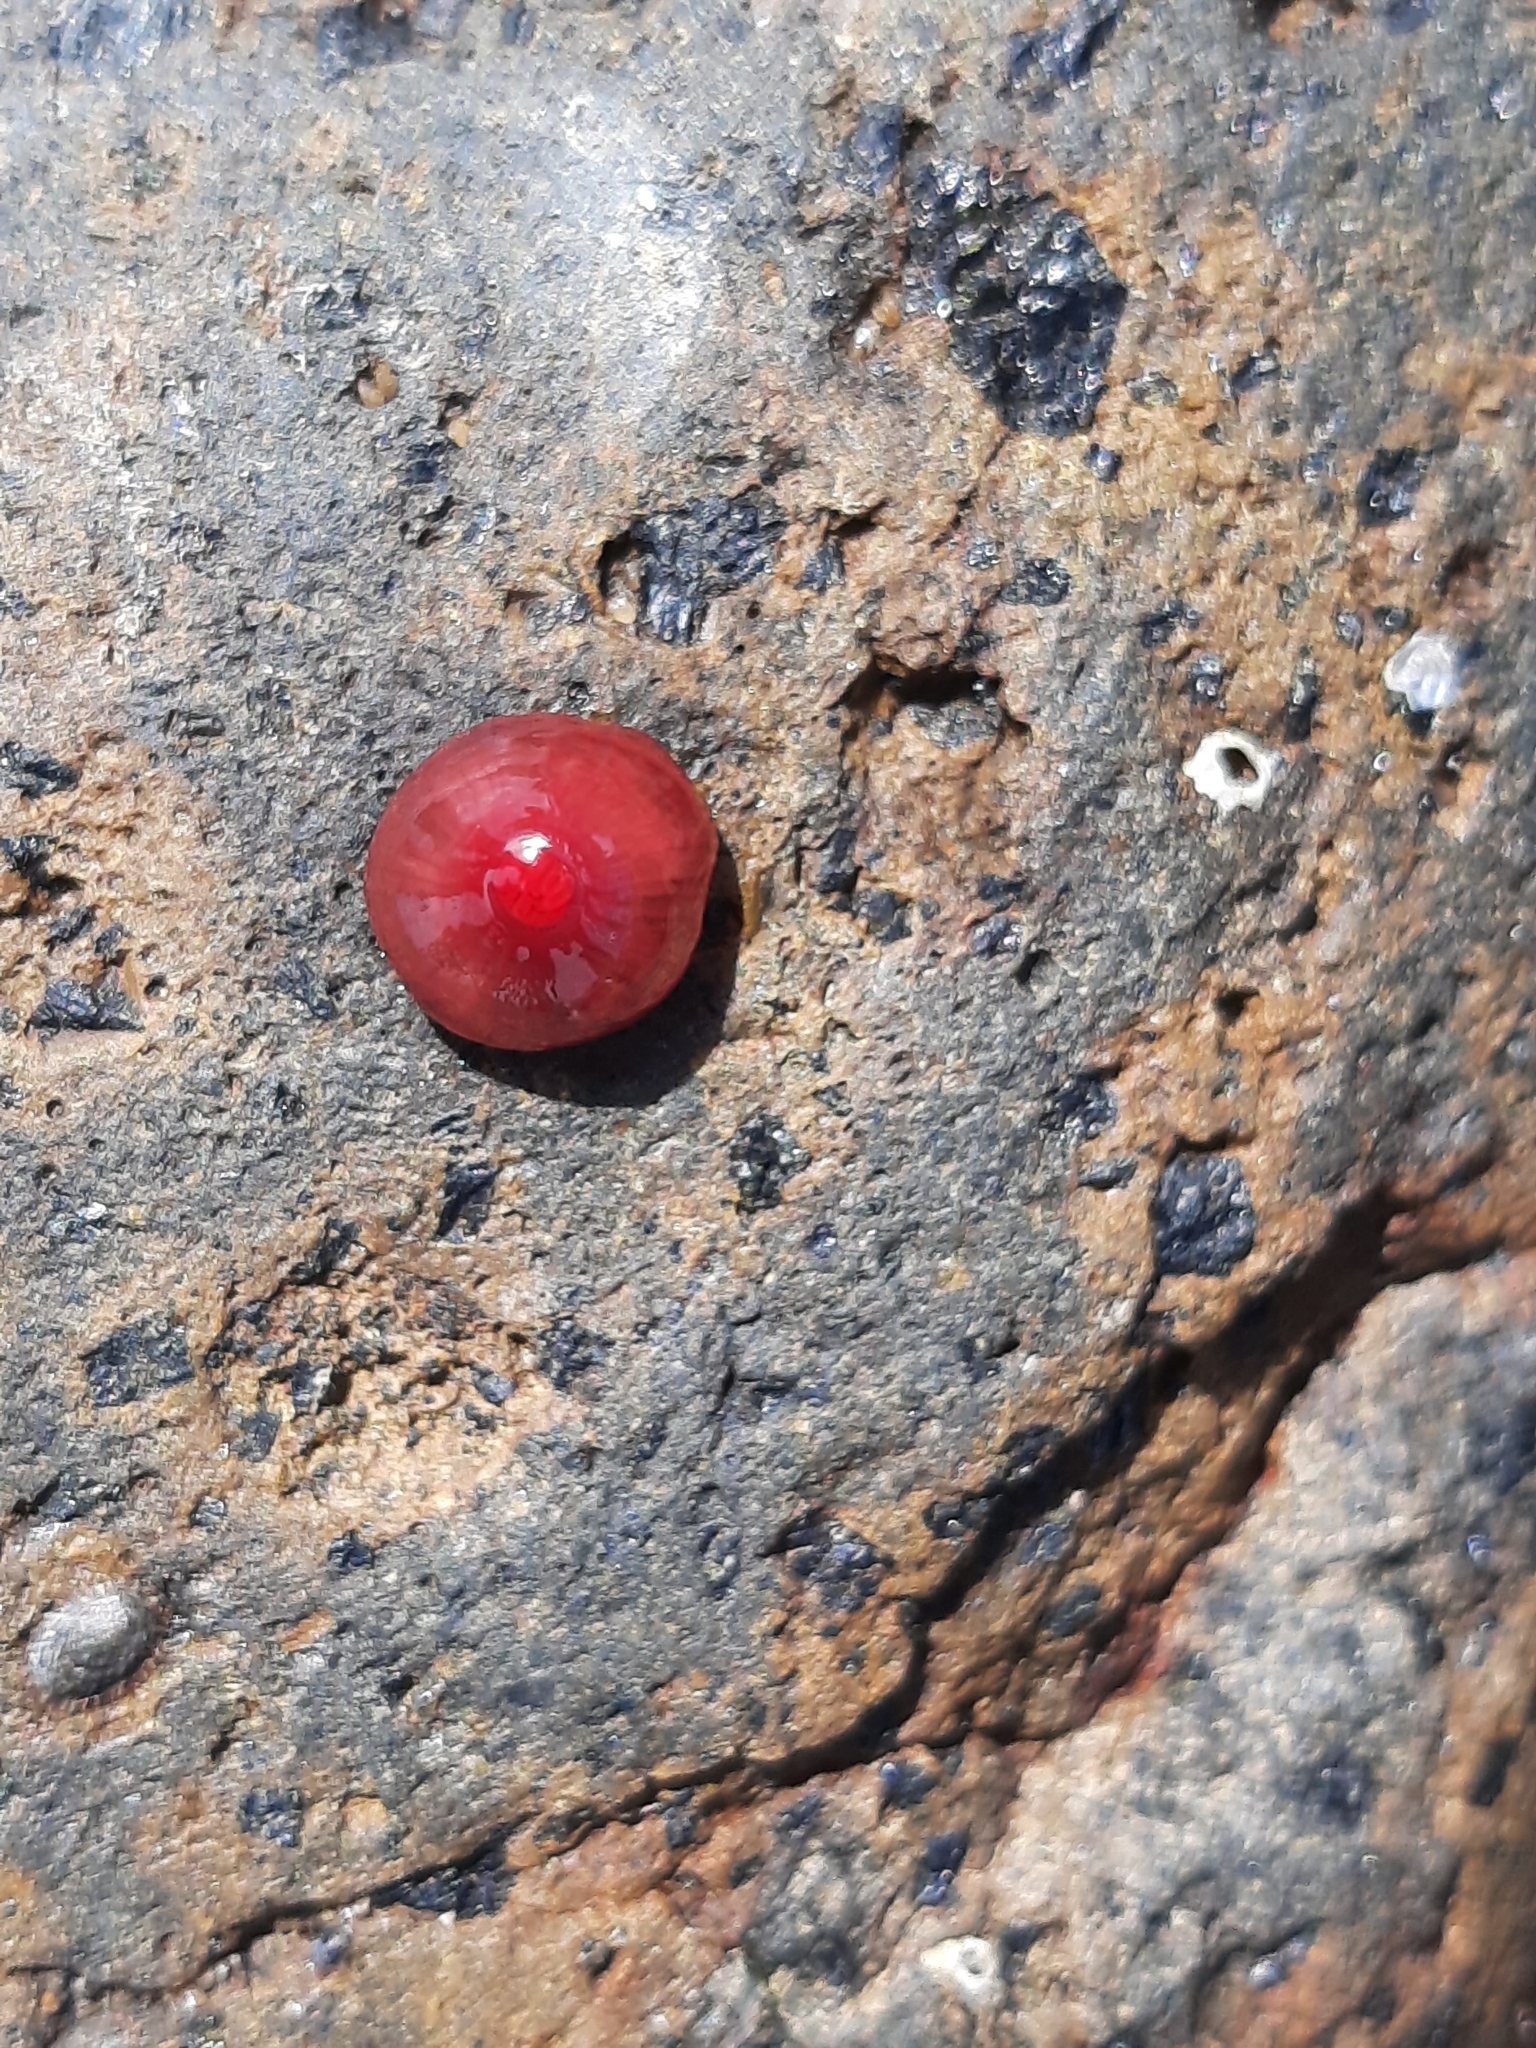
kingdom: Animalia
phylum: Cnidaria
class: Anthozoa
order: Actiniaria
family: Actiniidae
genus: Actinia
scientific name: Actinia tenebrosa
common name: Waratah anemone
